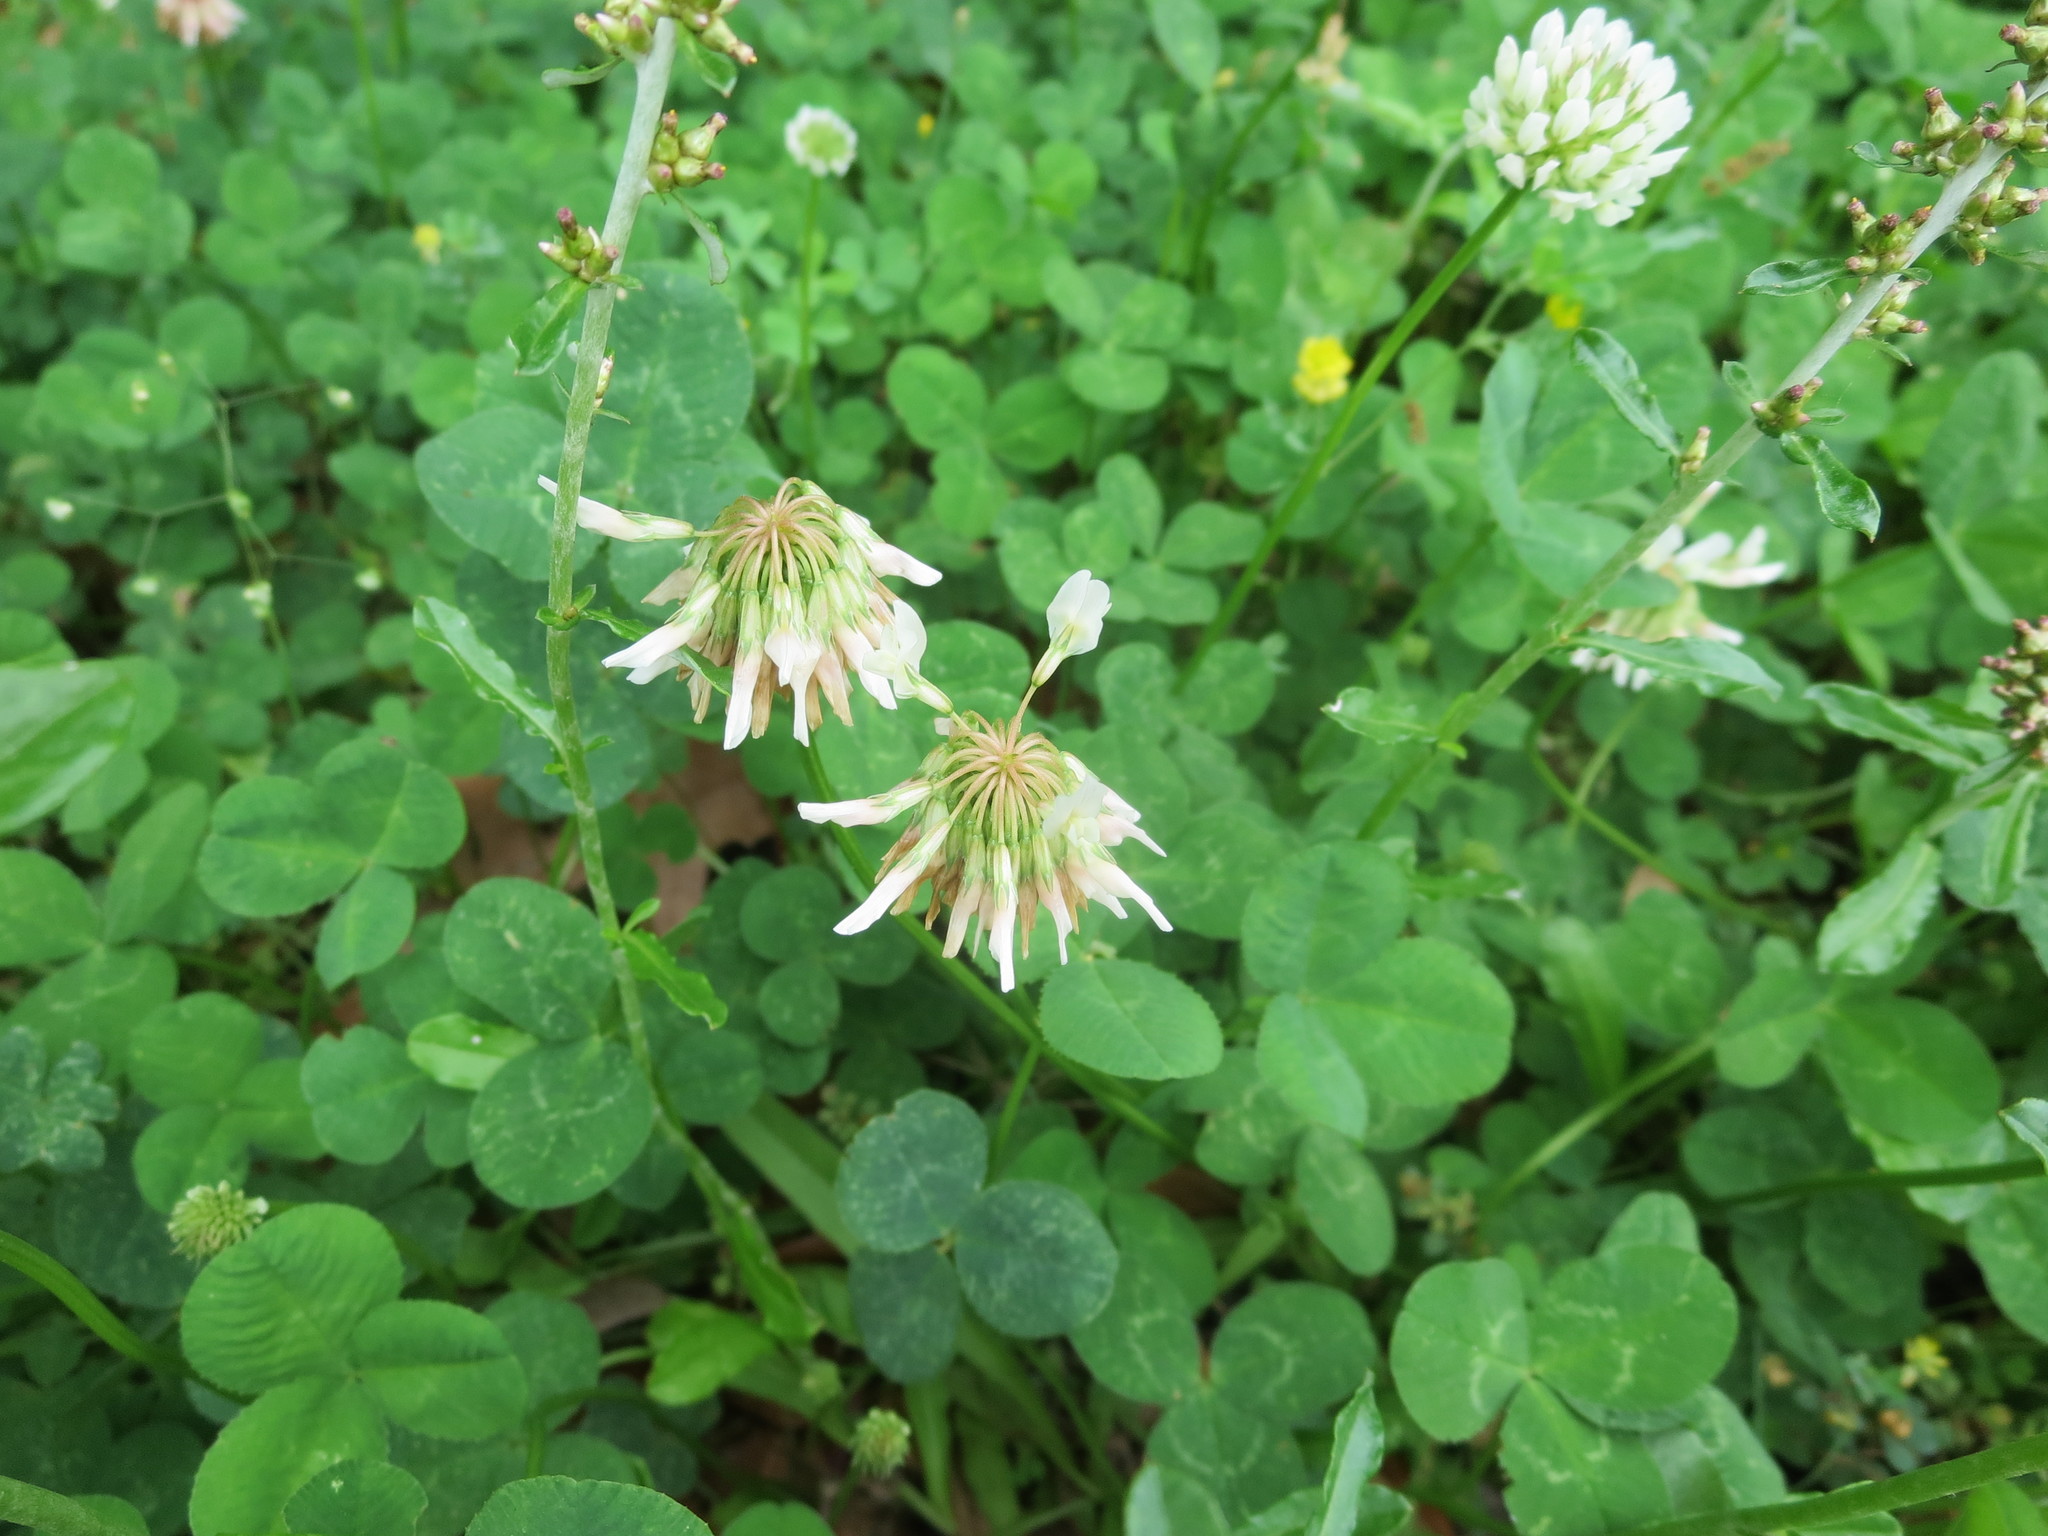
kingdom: Plantae
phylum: Tracheophyta
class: Magnoliopsida
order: Fabales
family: Fabaceae
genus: Trifolium
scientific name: Trifolium repens
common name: White clover
